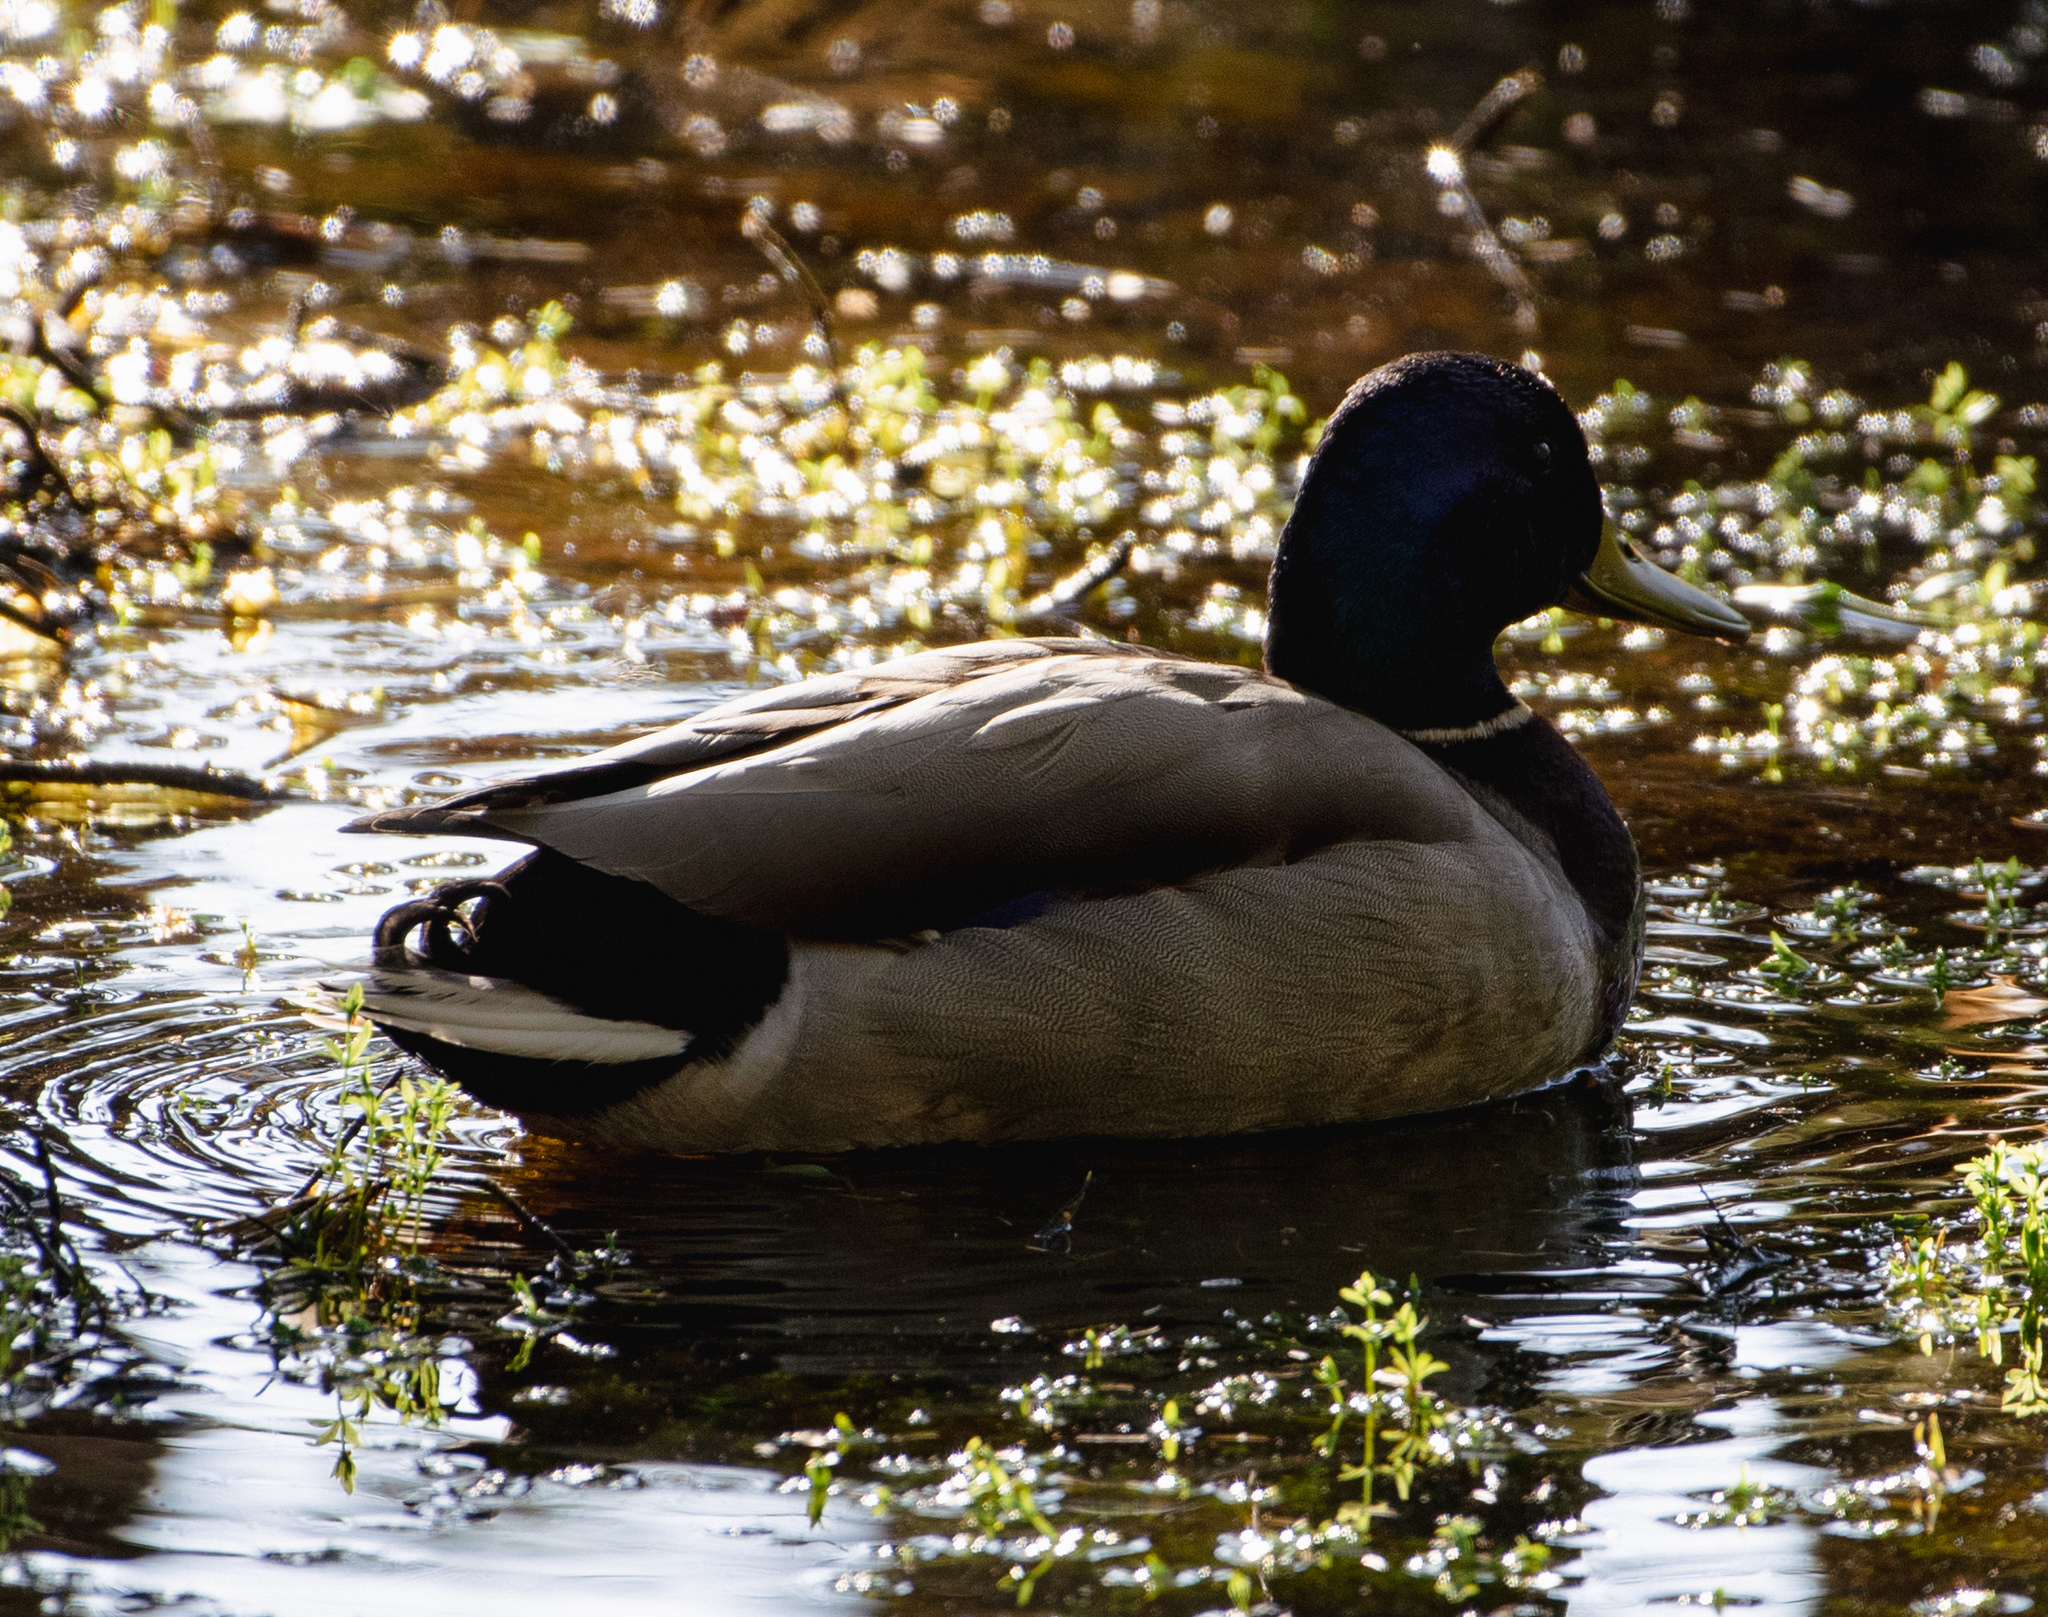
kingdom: Animalia
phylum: Chordata
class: Aves
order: Anseriformes
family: Anatidae
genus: Anas
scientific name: Anas platyrhynchos
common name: Mallard
